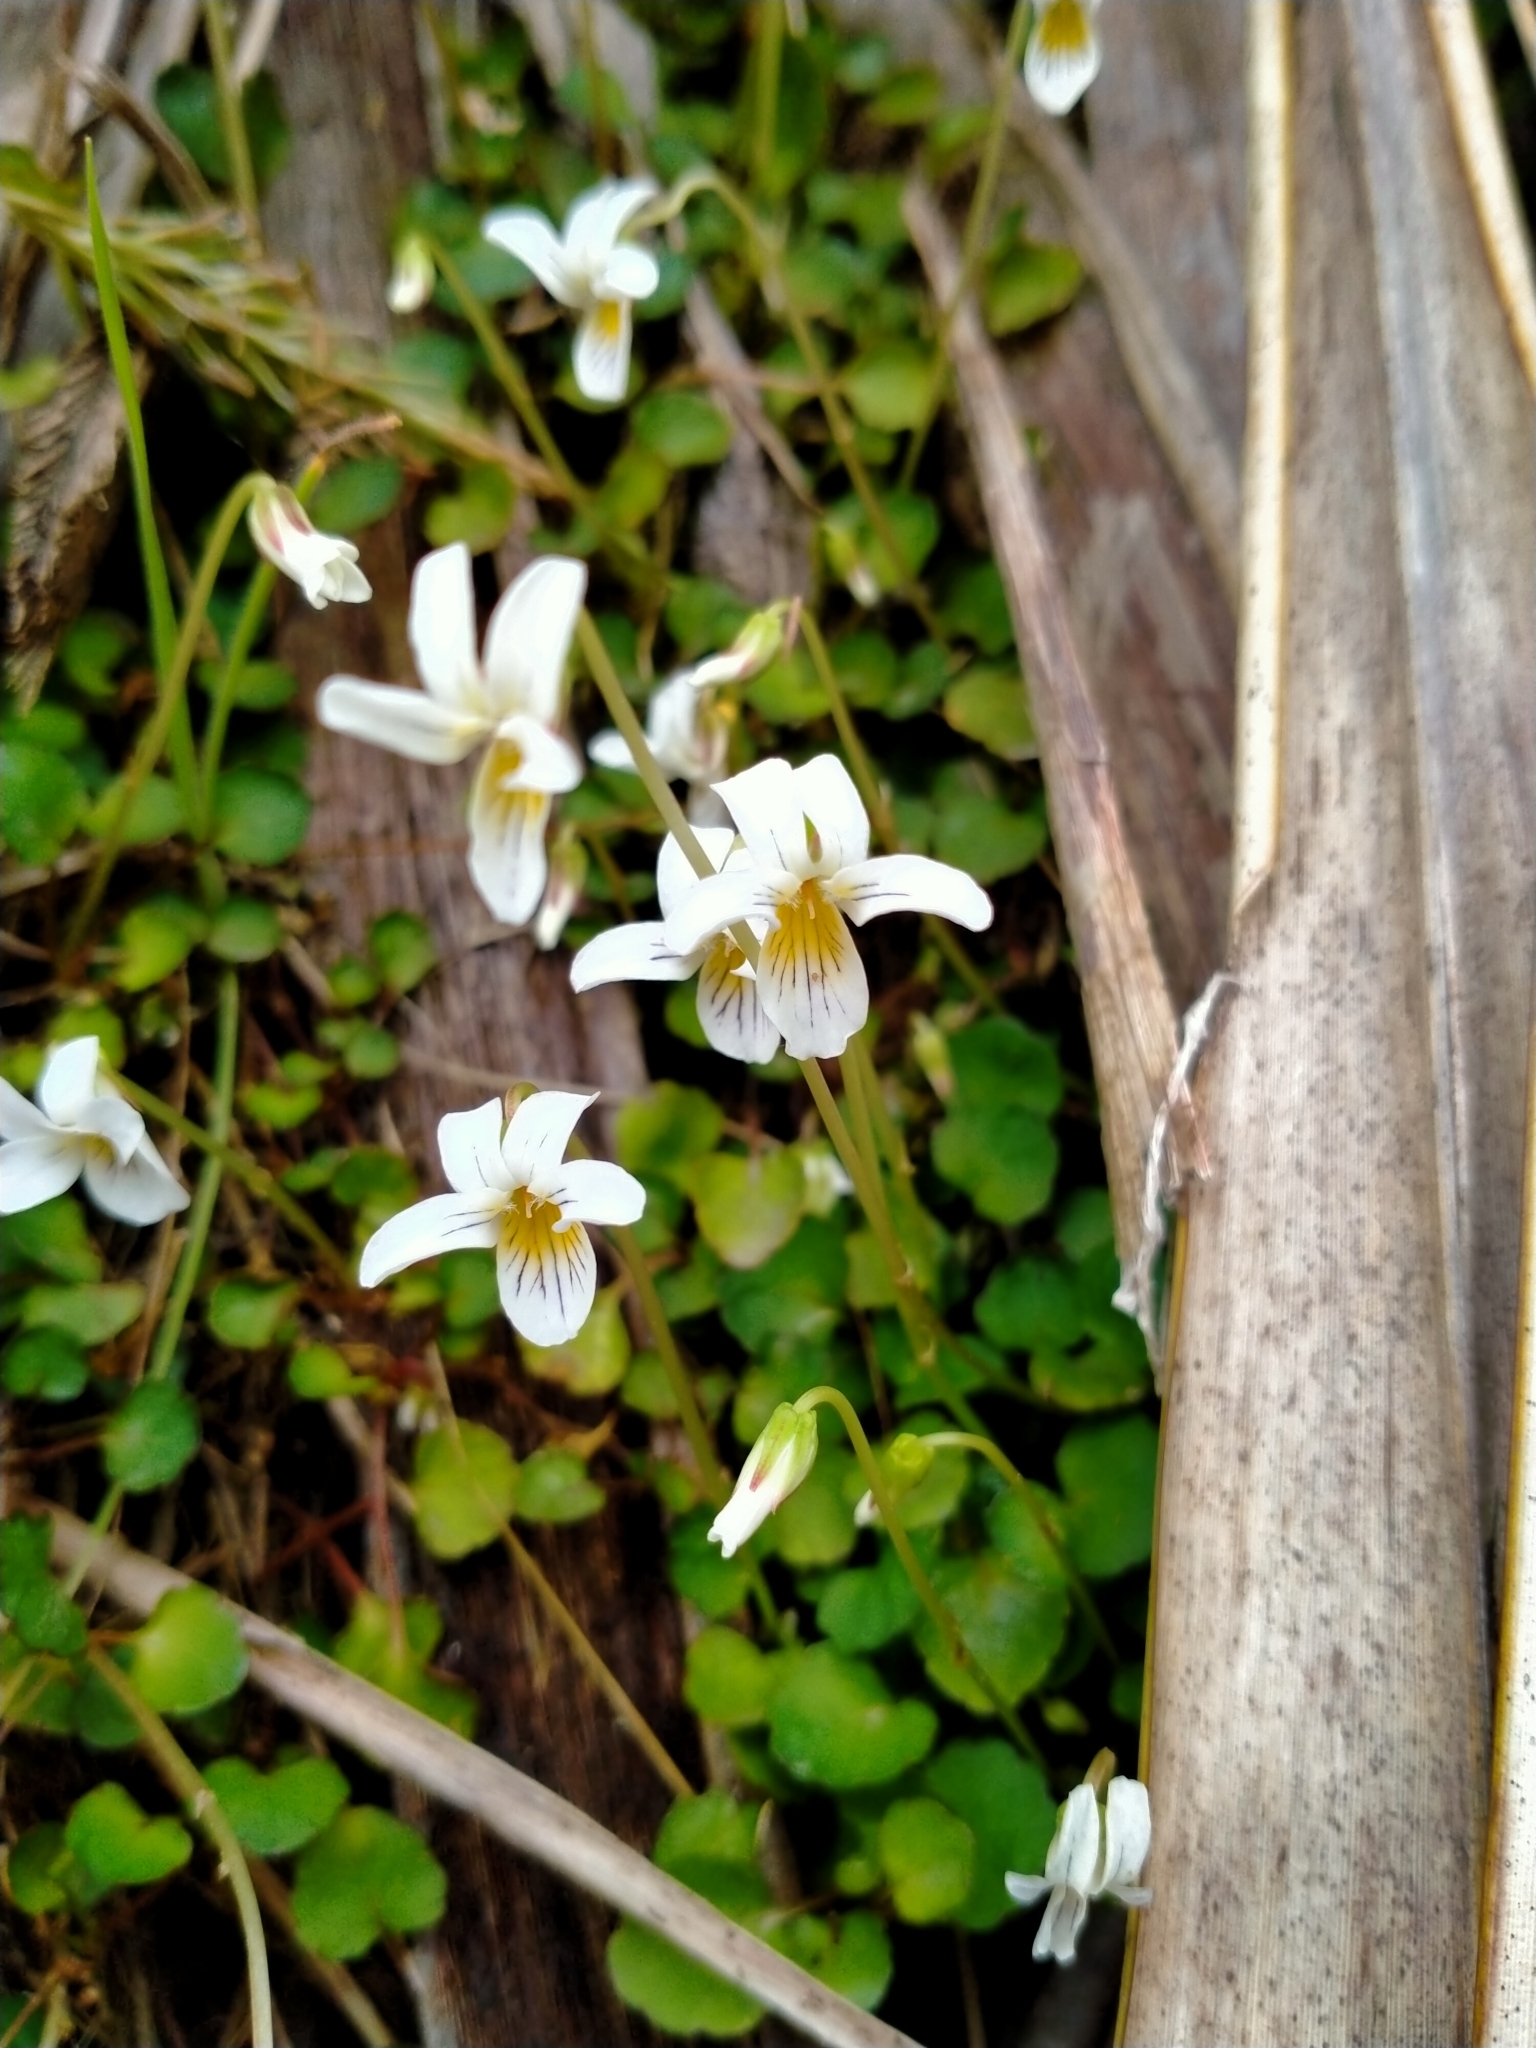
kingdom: Plantae
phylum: Tracheophyta
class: Magnoliopsida
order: Malpighiales
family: Violaceae
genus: Viola
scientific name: Viola filicaulis
